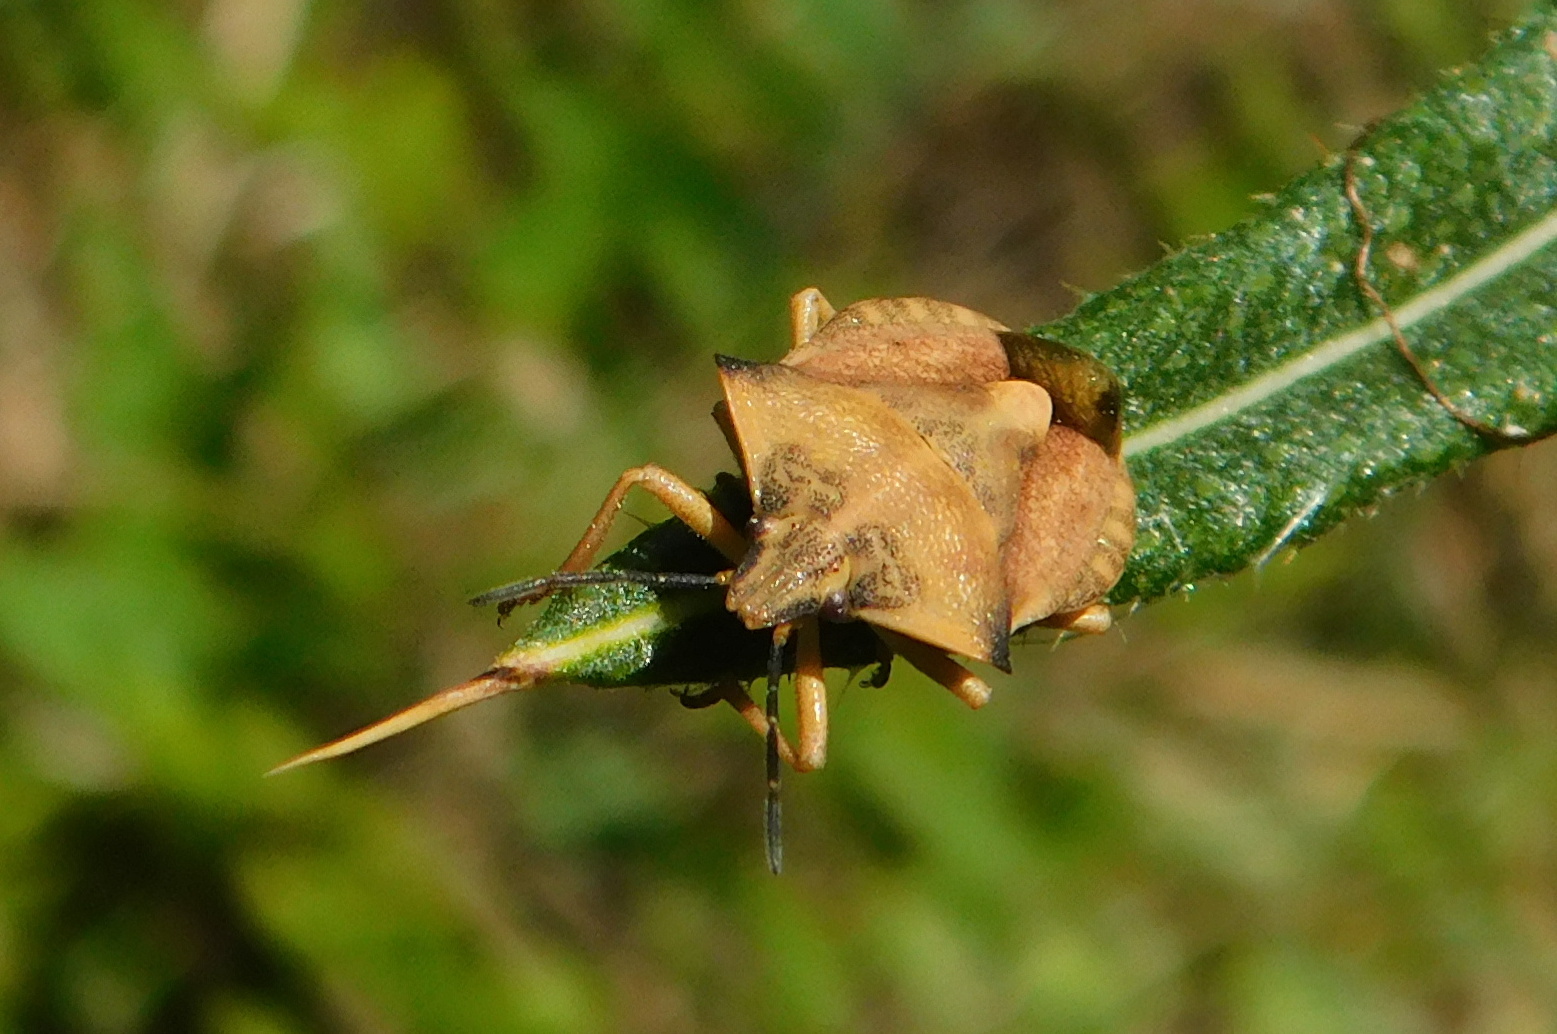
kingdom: Animalia
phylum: Arthropoda
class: Insecta
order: Hemiptera
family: Pentatomidae
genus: Carpocoris
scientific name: Carpocoris fuscispinus
